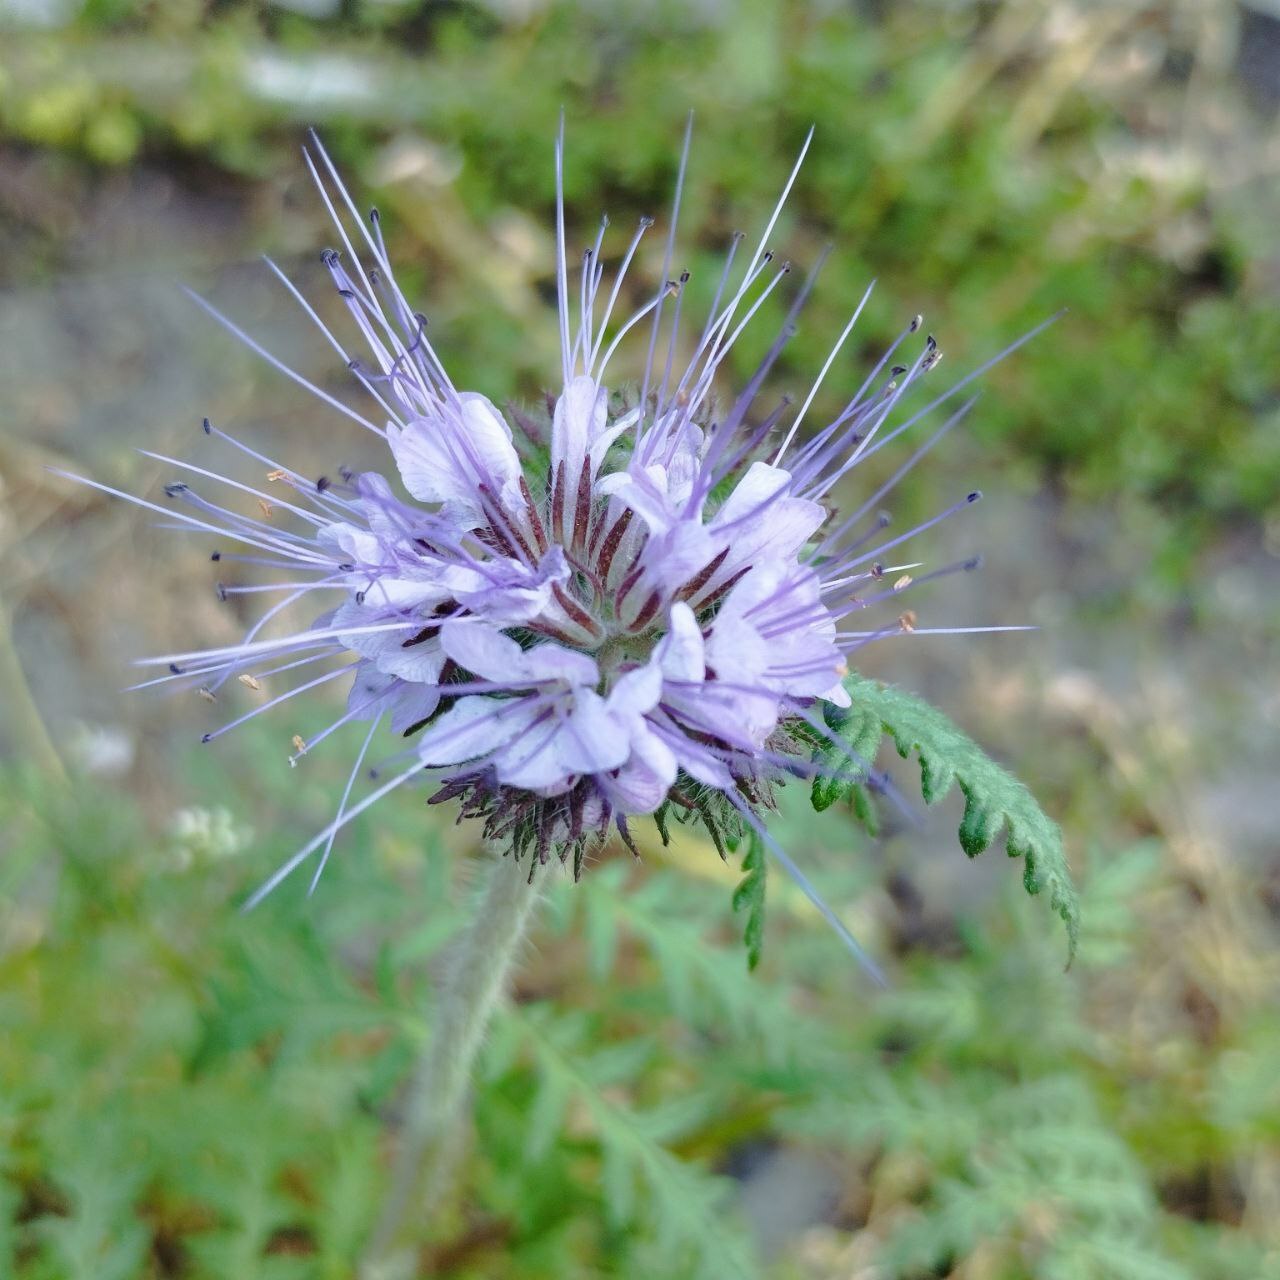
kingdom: Plantae
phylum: Tracheophyta
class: Magnoliopsida
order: Boraginales
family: Hydrophyllaceae
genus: Phacelia
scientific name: Phacelia tanacetifolia
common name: Phacelia
